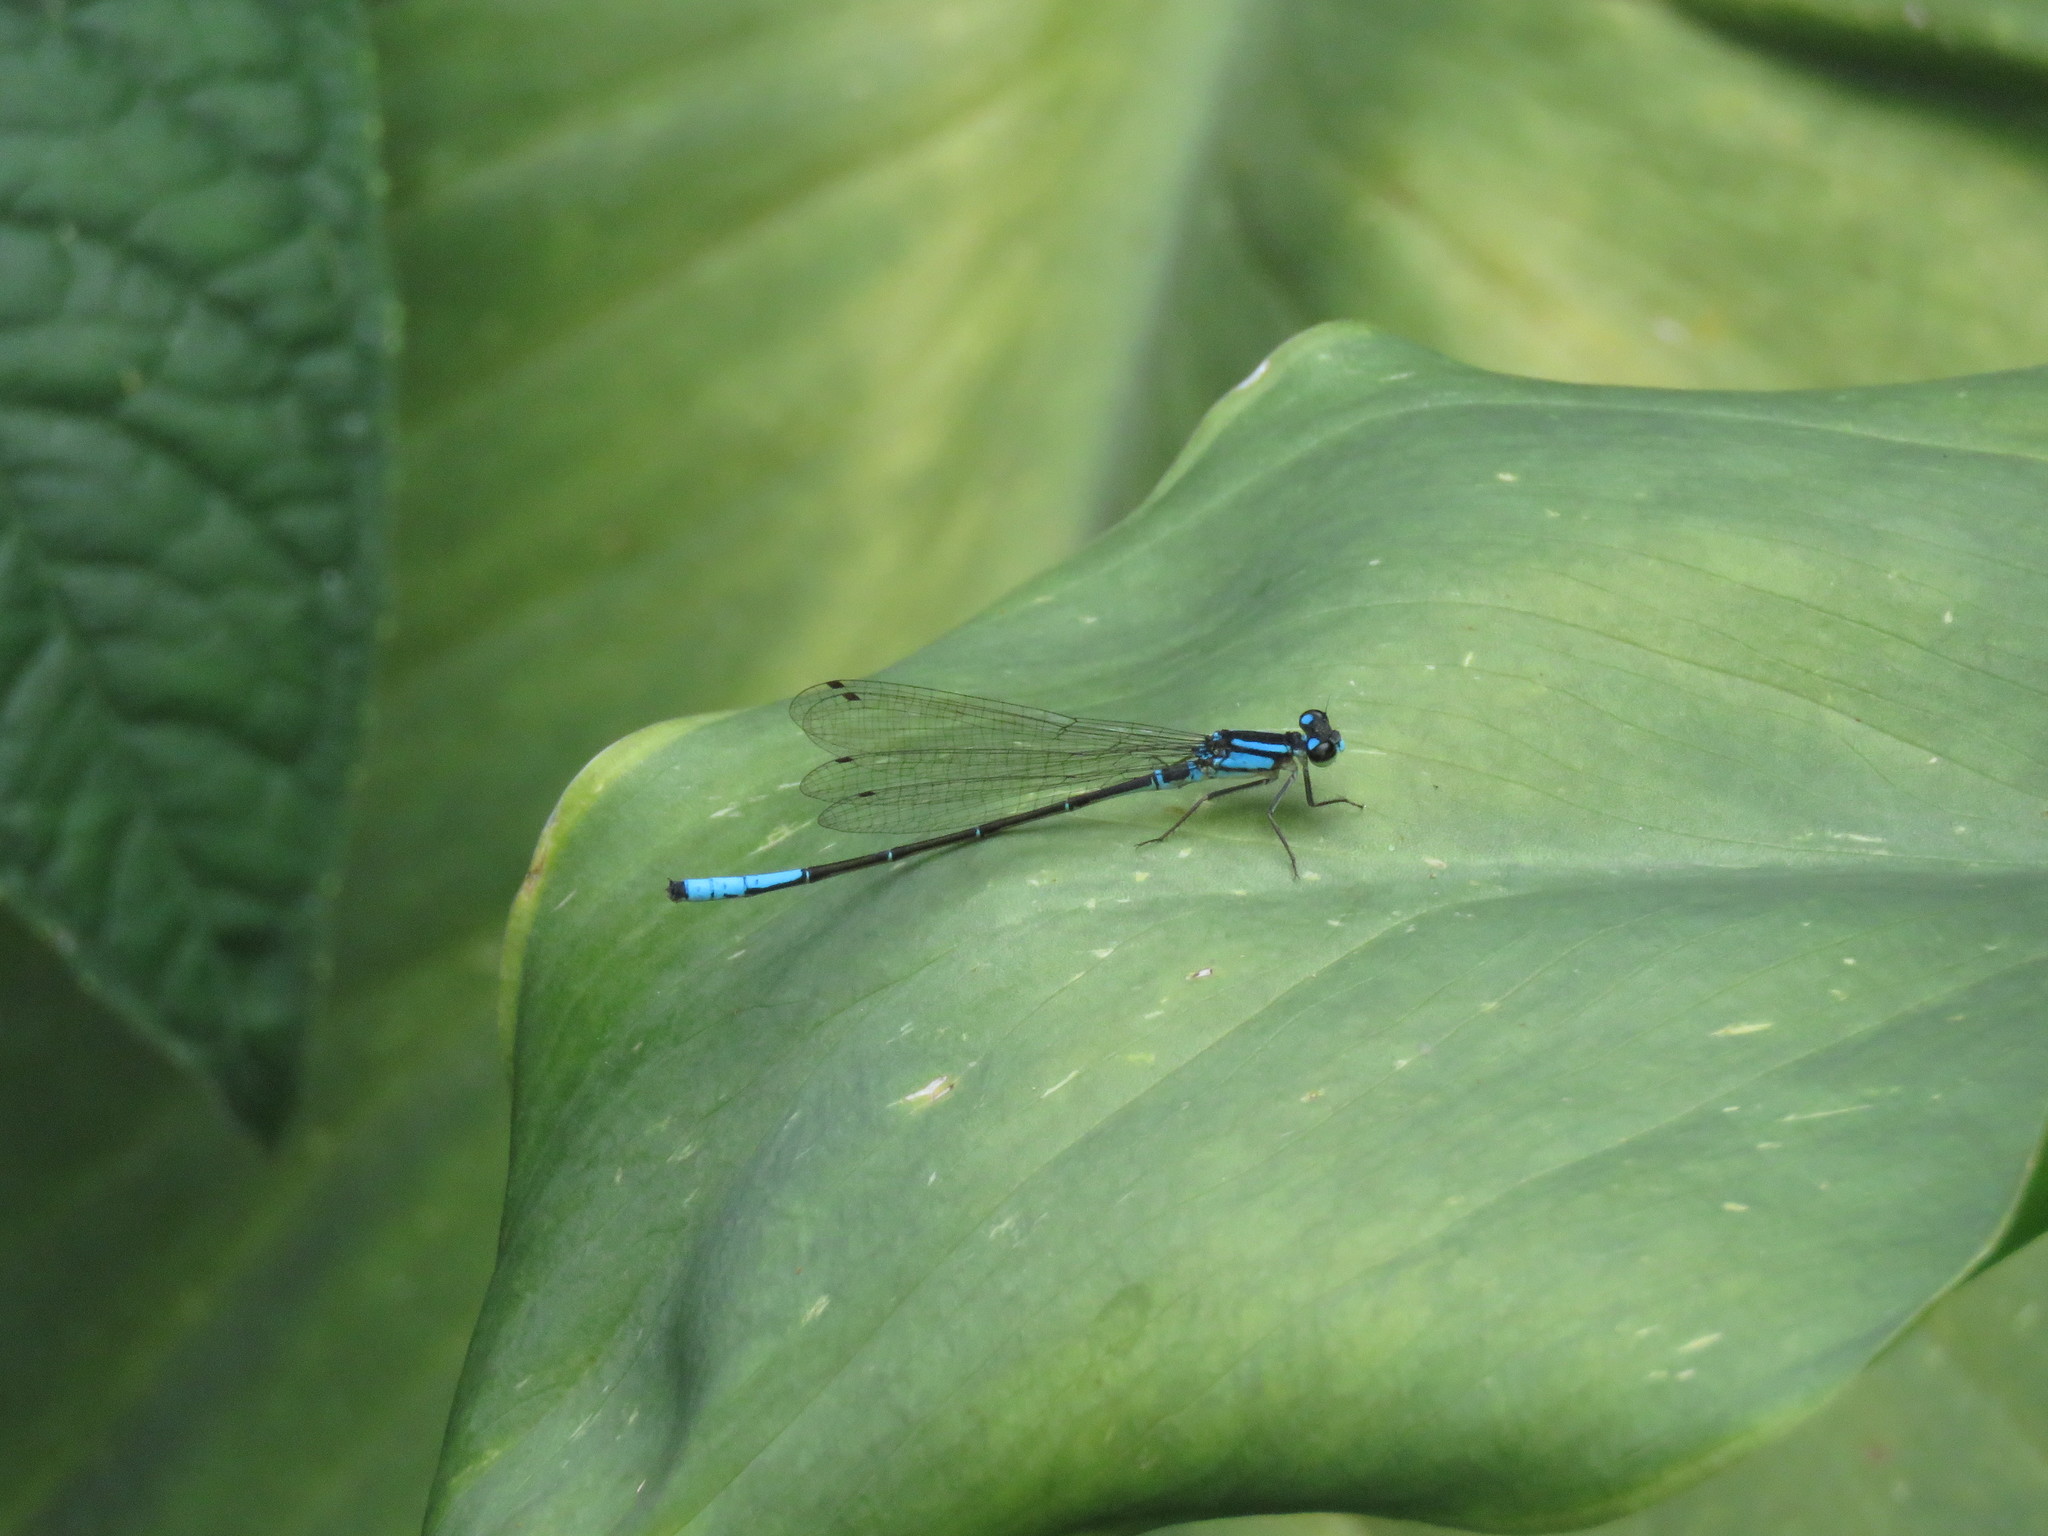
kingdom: Animalia
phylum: Arthropoda
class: Insecta
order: Odonata
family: Coenagrionidae
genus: Mesamphiagrion
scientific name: Mesamphiagrion laterale
